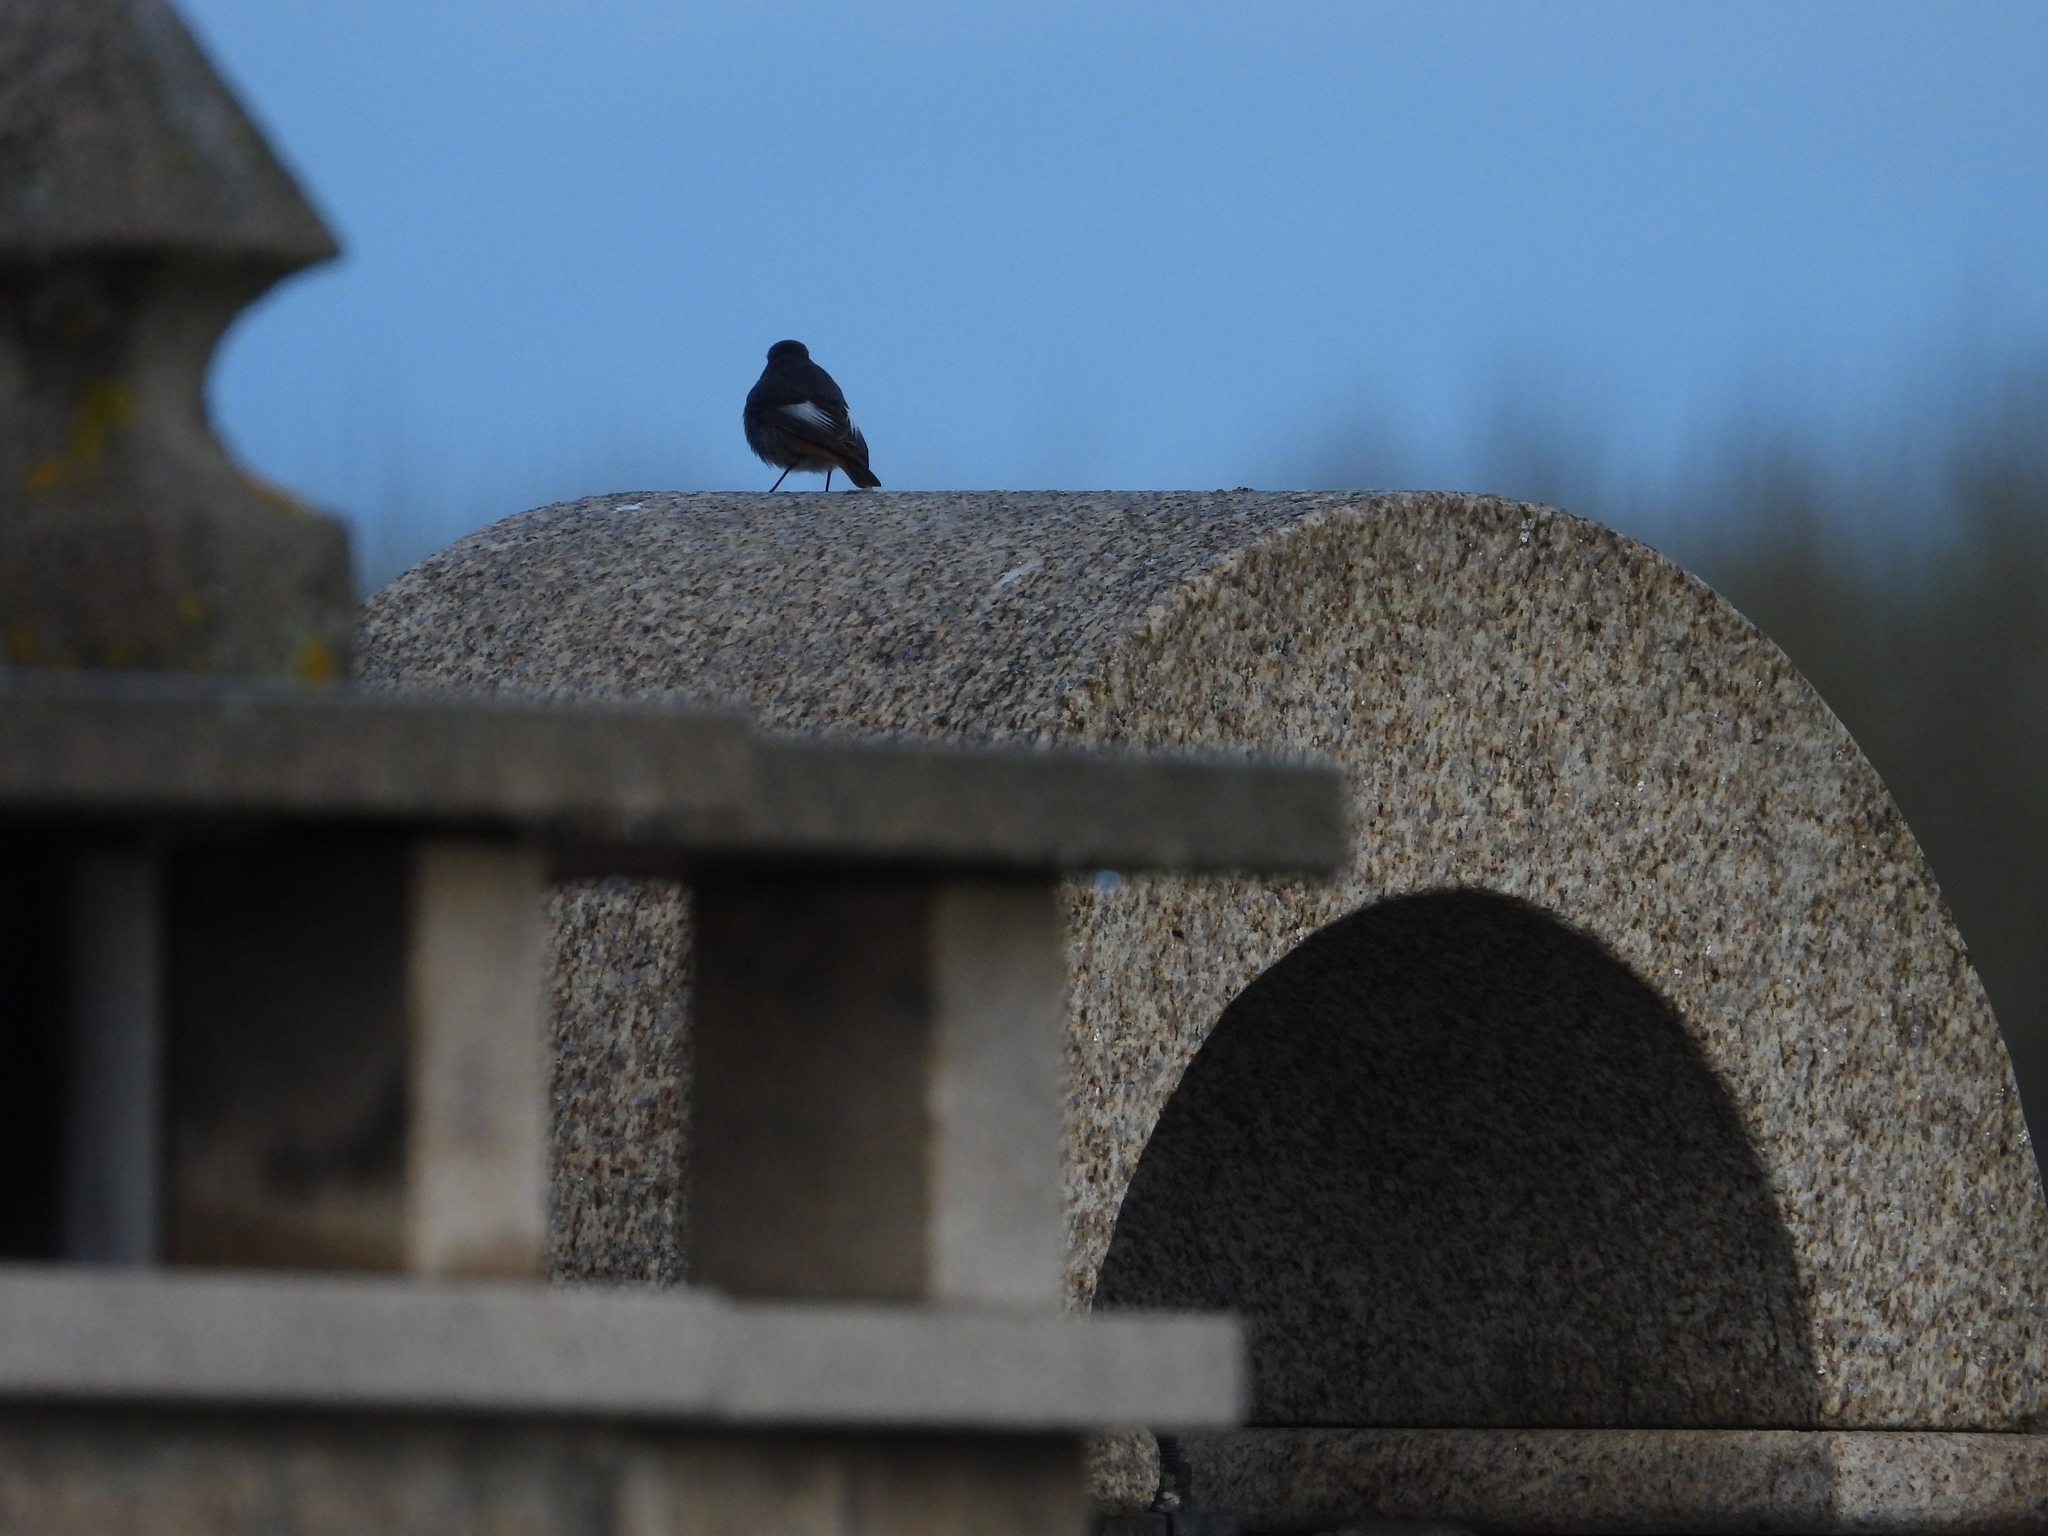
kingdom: Animalia
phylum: Chordata
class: Aves
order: Passeriformes
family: Muscicapidae
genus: Phoenicurus
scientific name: Phoenicurus ochruros
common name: Black redstart
